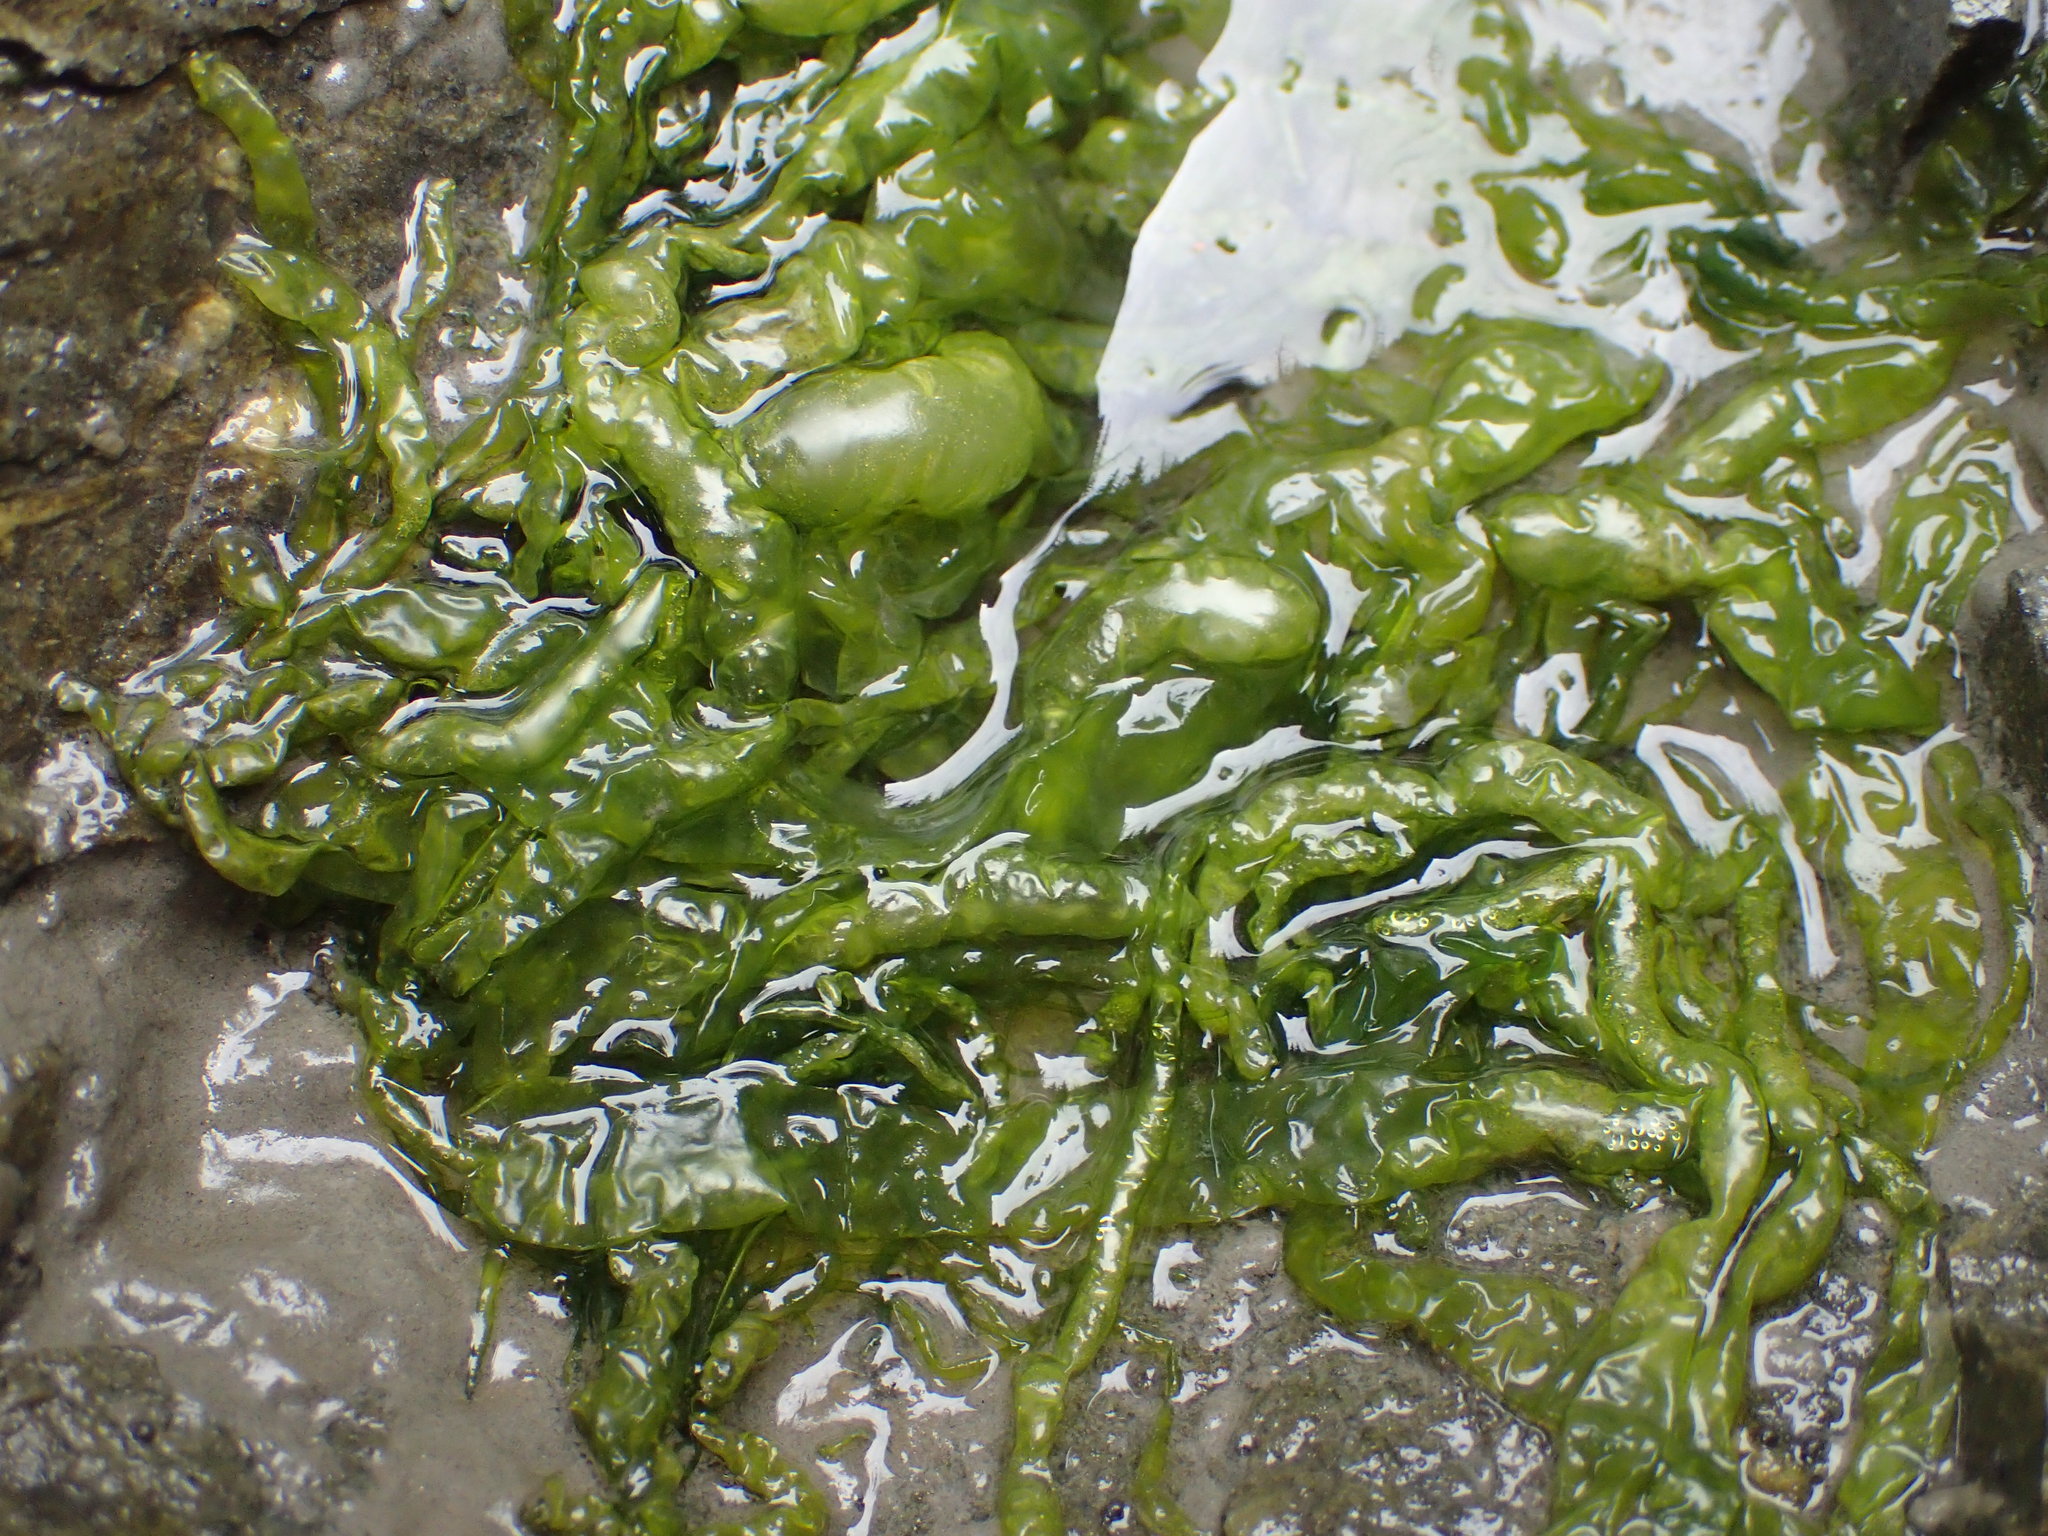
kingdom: Plantae
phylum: Chlorophyta
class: Ulvophyceae
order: Ulvales
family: Ulvaceae
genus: Ulva
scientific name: Ulva intestinalis
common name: Gut weed
